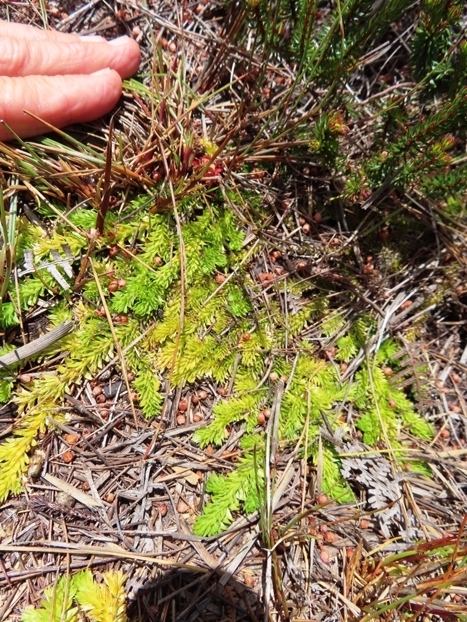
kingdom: Plantae
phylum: Tracheophyta
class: Lycopodiopsida
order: Lycopodiales
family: Lycopodiaceae
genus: Pseudolycopodiella
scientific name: Pseudolycopodiella caroliniana
